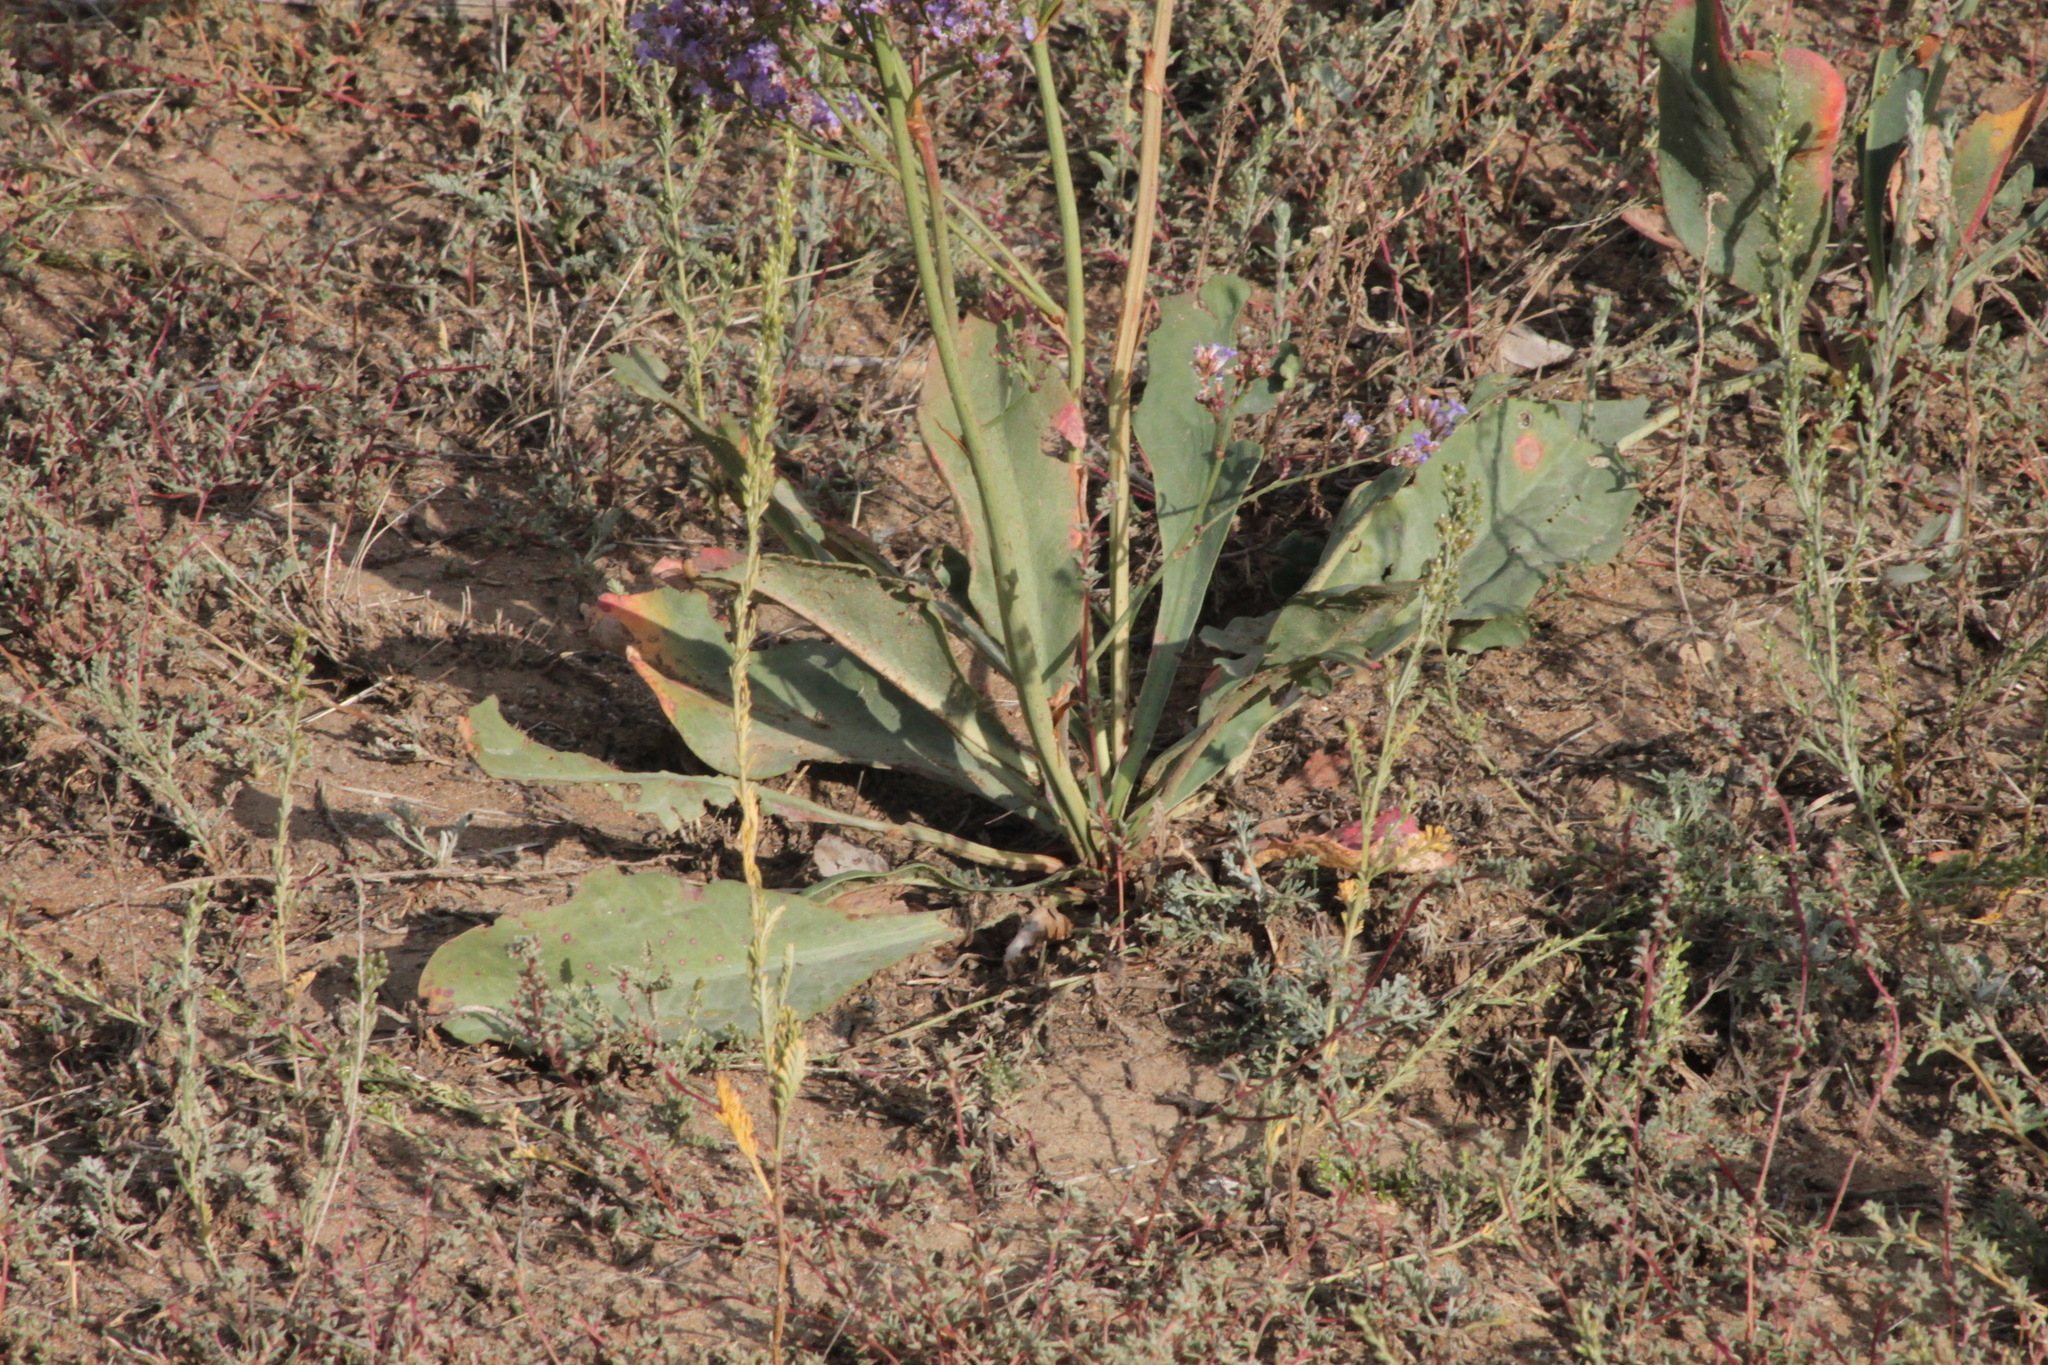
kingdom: Plantae
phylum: Tracheophyta
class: Magnoliopsida
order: Caryophyllales
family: Plumbaginaceae
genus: Limonium
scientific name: Limonium gmelini
